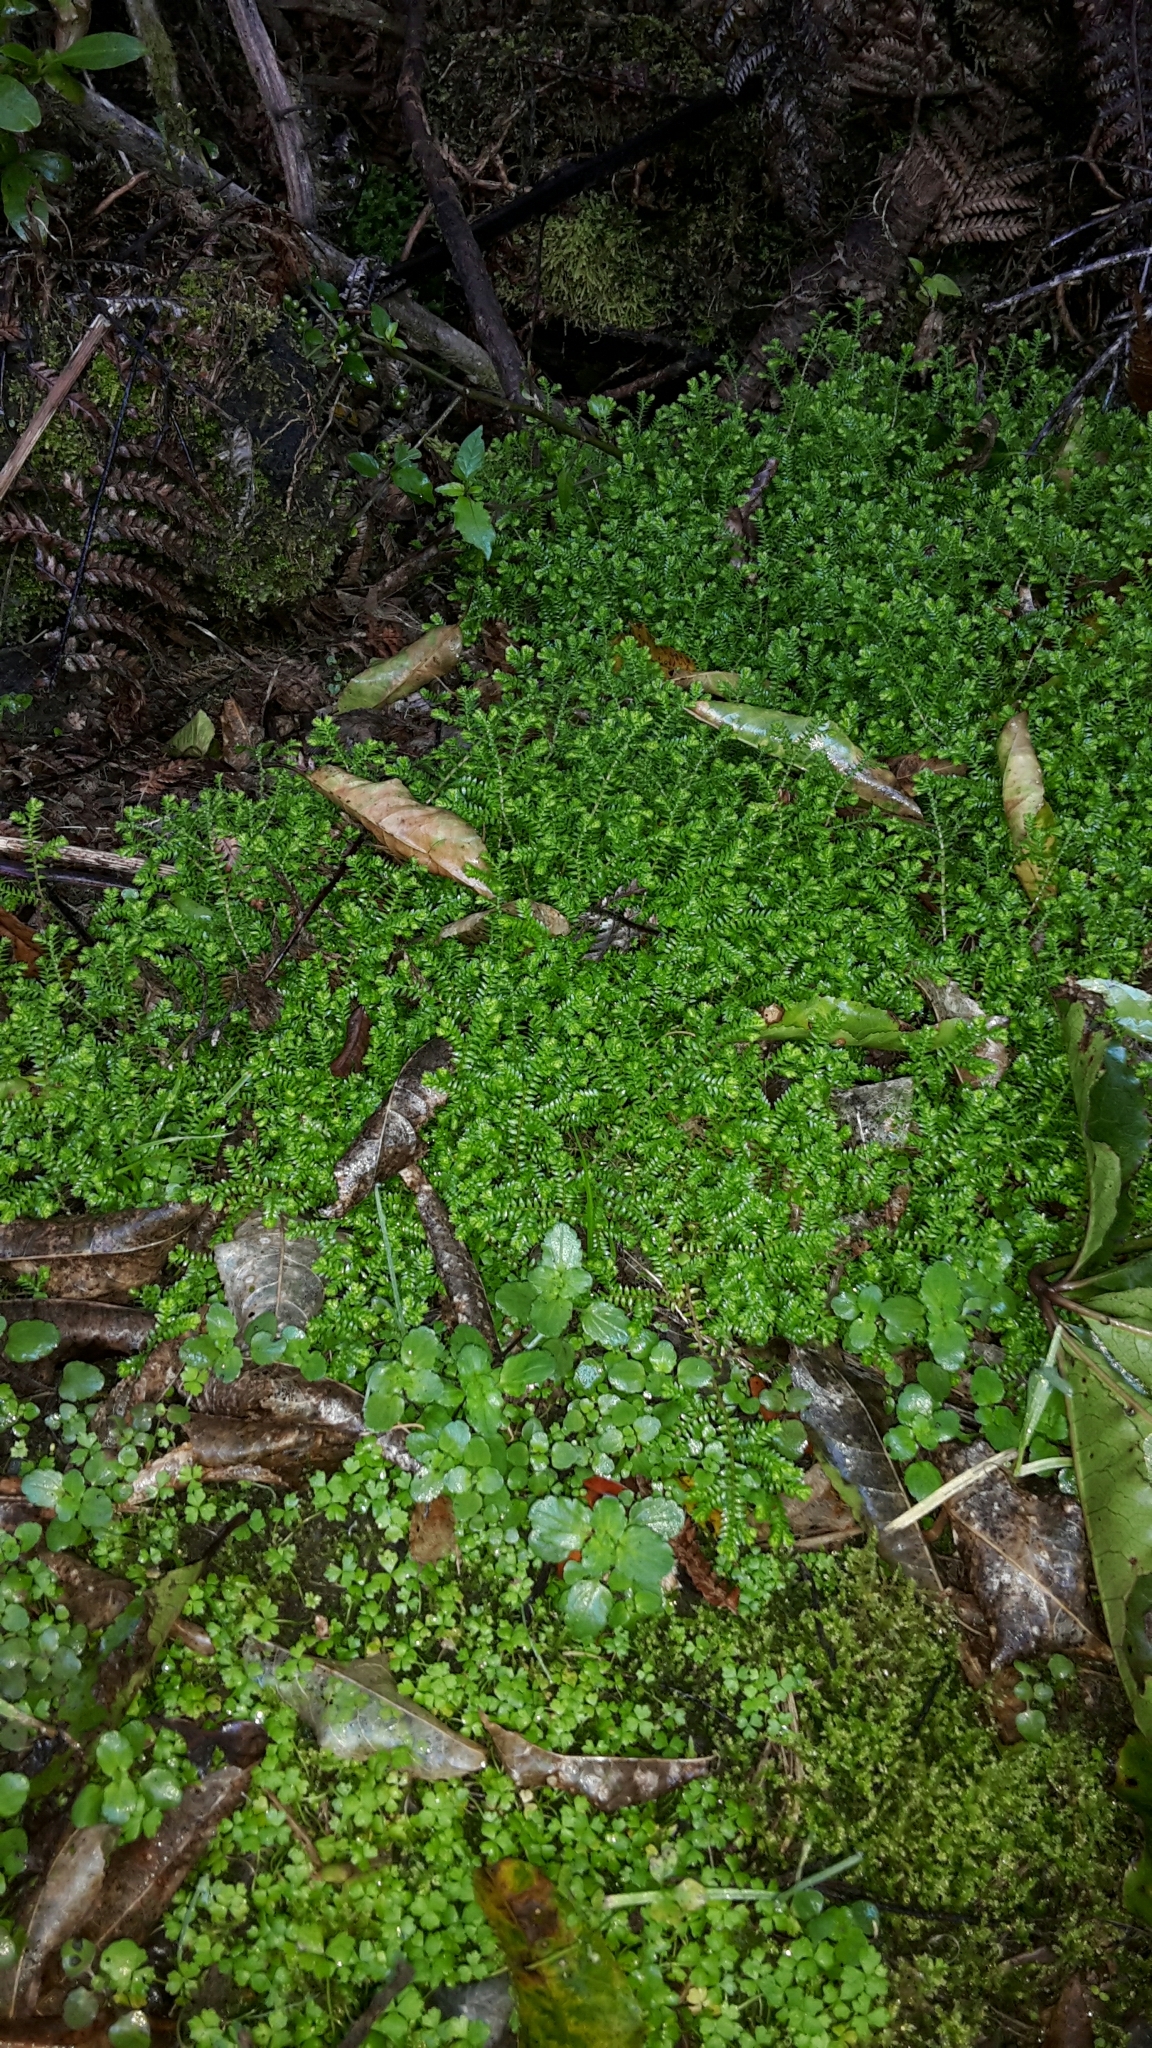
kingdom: Plantae
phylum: Tracheophyta
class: Lycopodiopsida
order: Selaginellales
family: Selaginellaceae
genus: Selaginella
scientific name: Selaginella kraussiana
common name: Krauss' spikemoss
